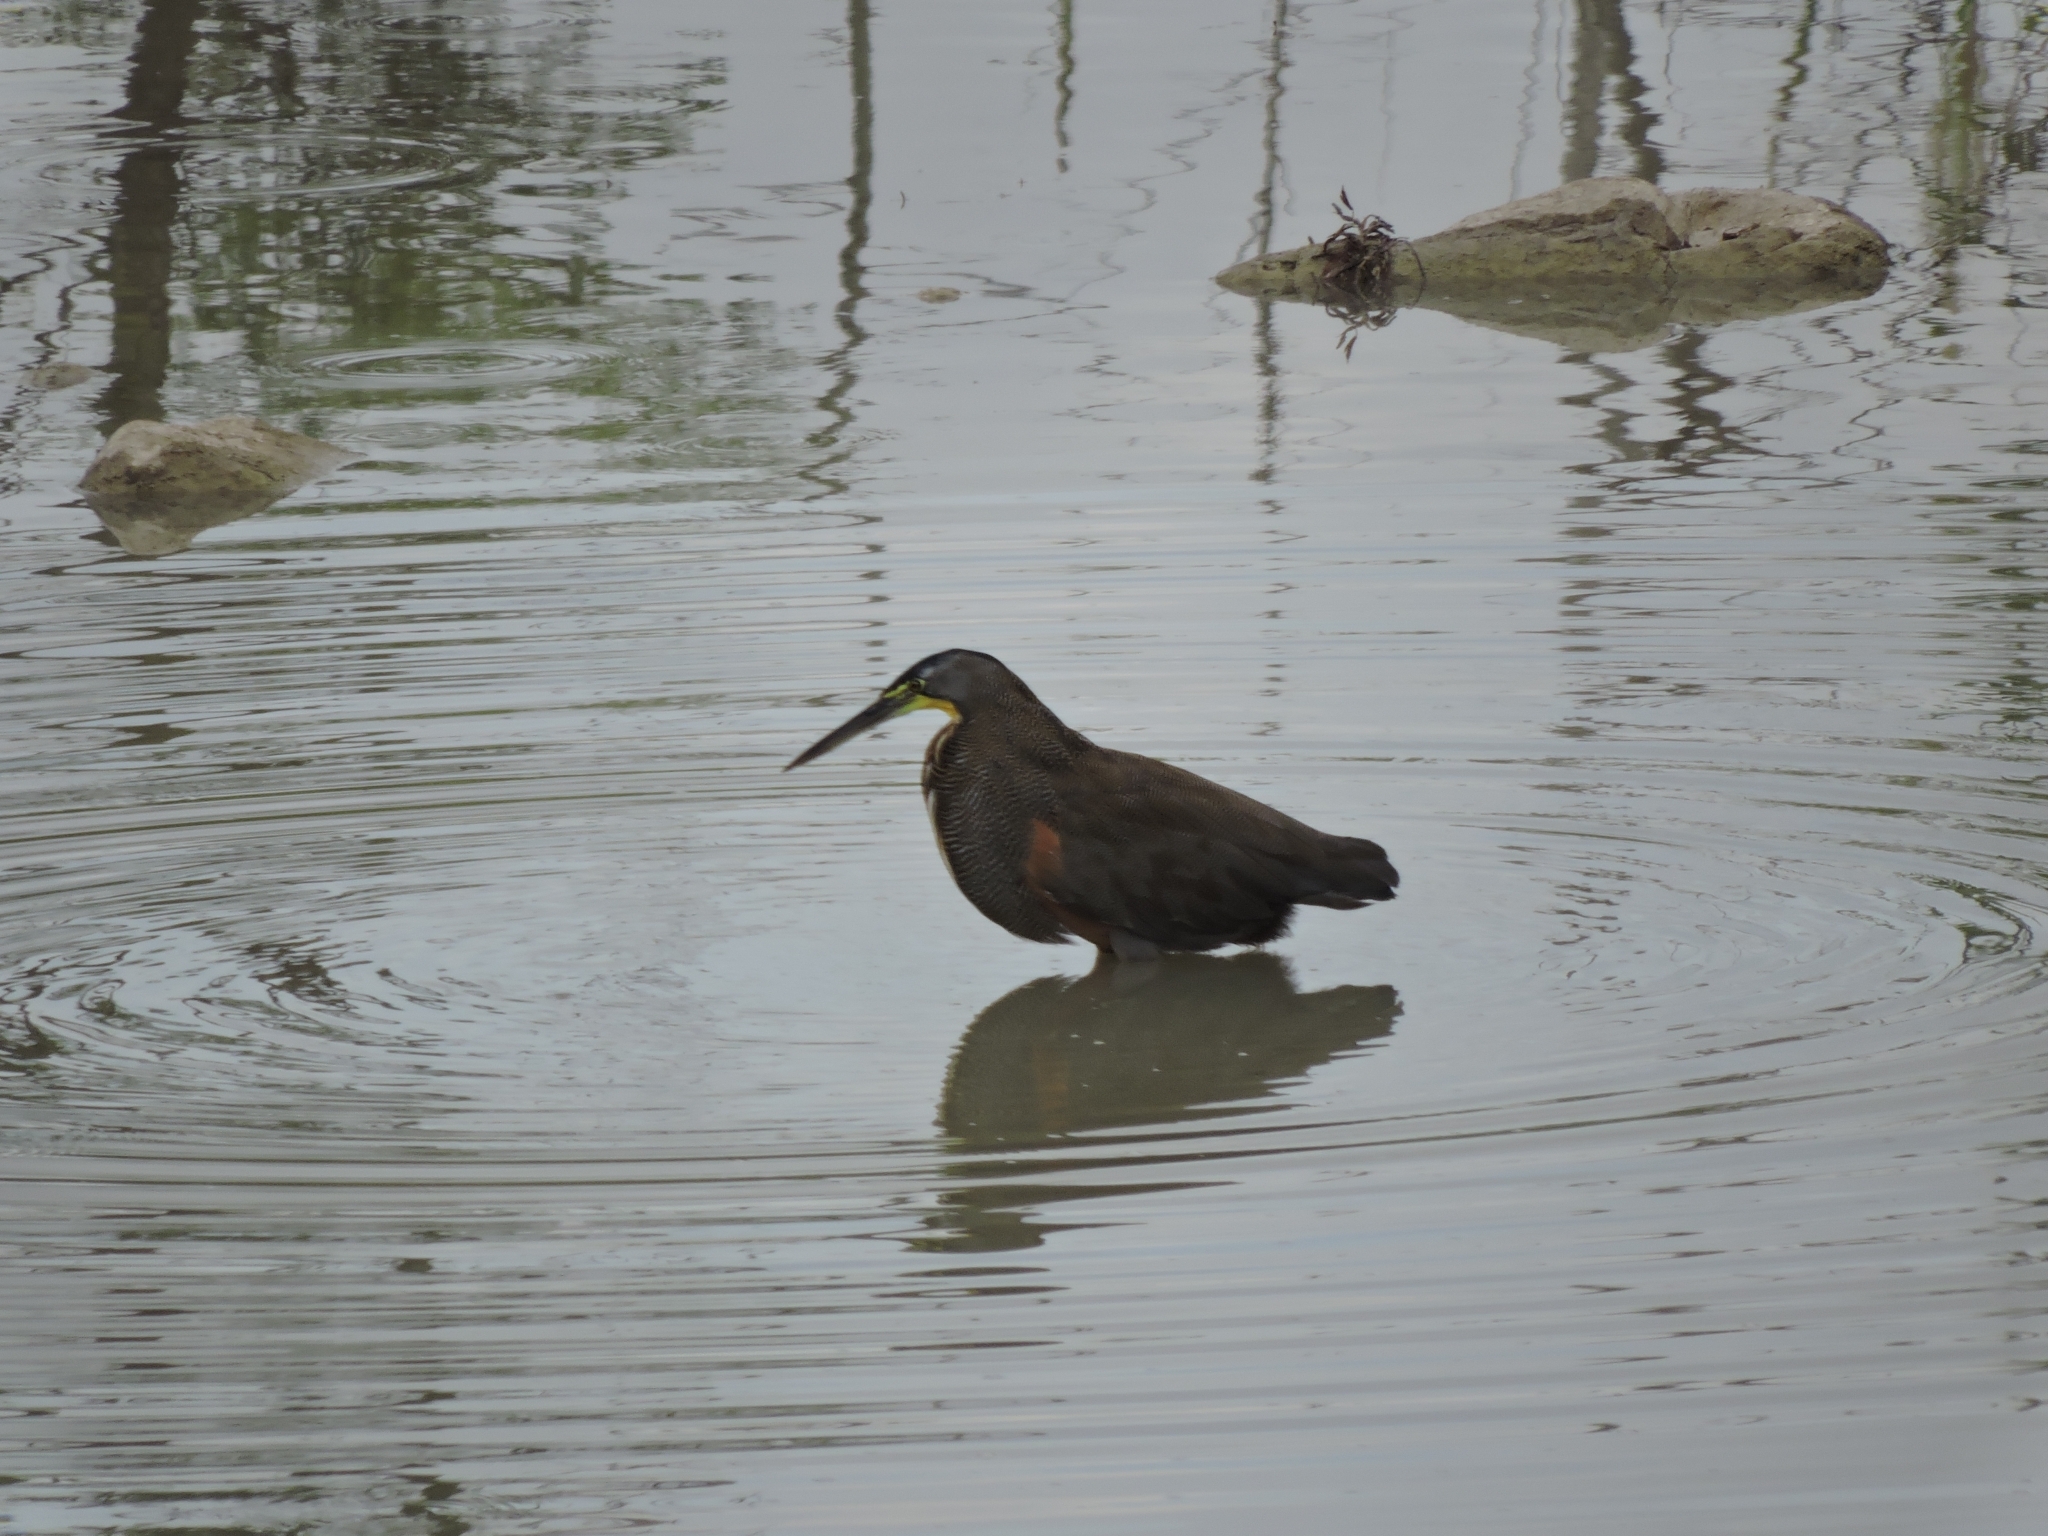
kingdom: Animalia
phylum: Chordata
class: Aves
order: Pelecaniformes
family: Ardeidae
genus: Tigrisoma
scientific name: Tigrisoma mexicanum
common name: Bare-throated tiger-heron
